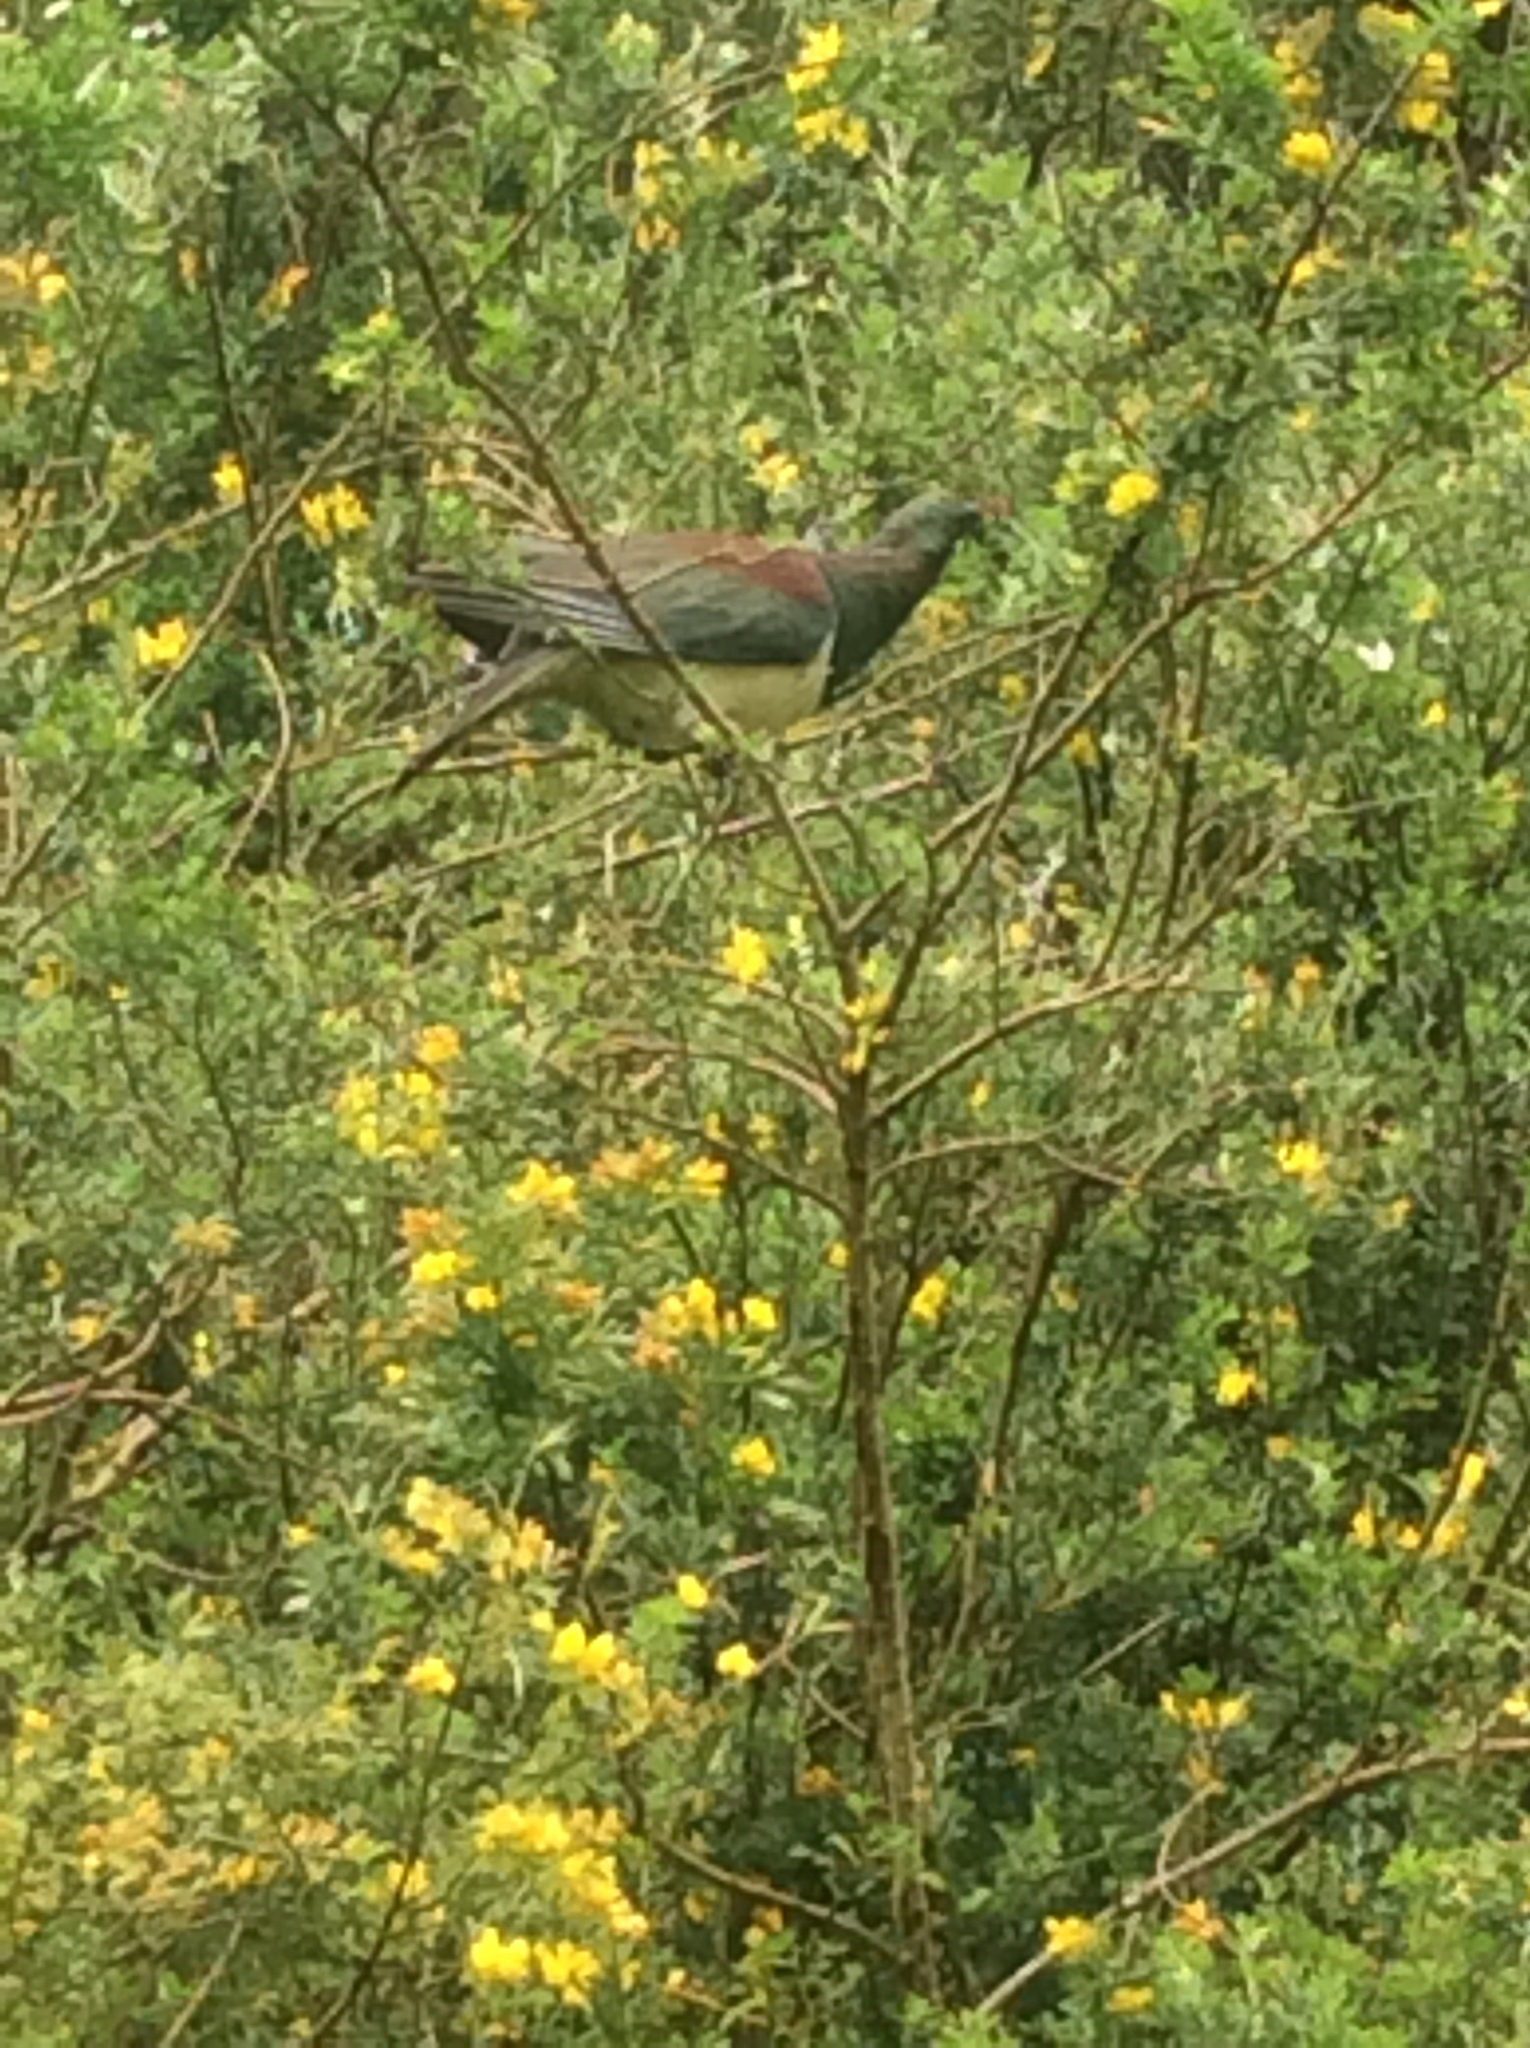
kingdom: Animalia
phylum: Chordata
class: Aves
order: Columbiformes
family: Columbidae
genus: Hemiphaga
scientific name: Hemiphaga novaeseelandiae
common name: New zealand pigeon
